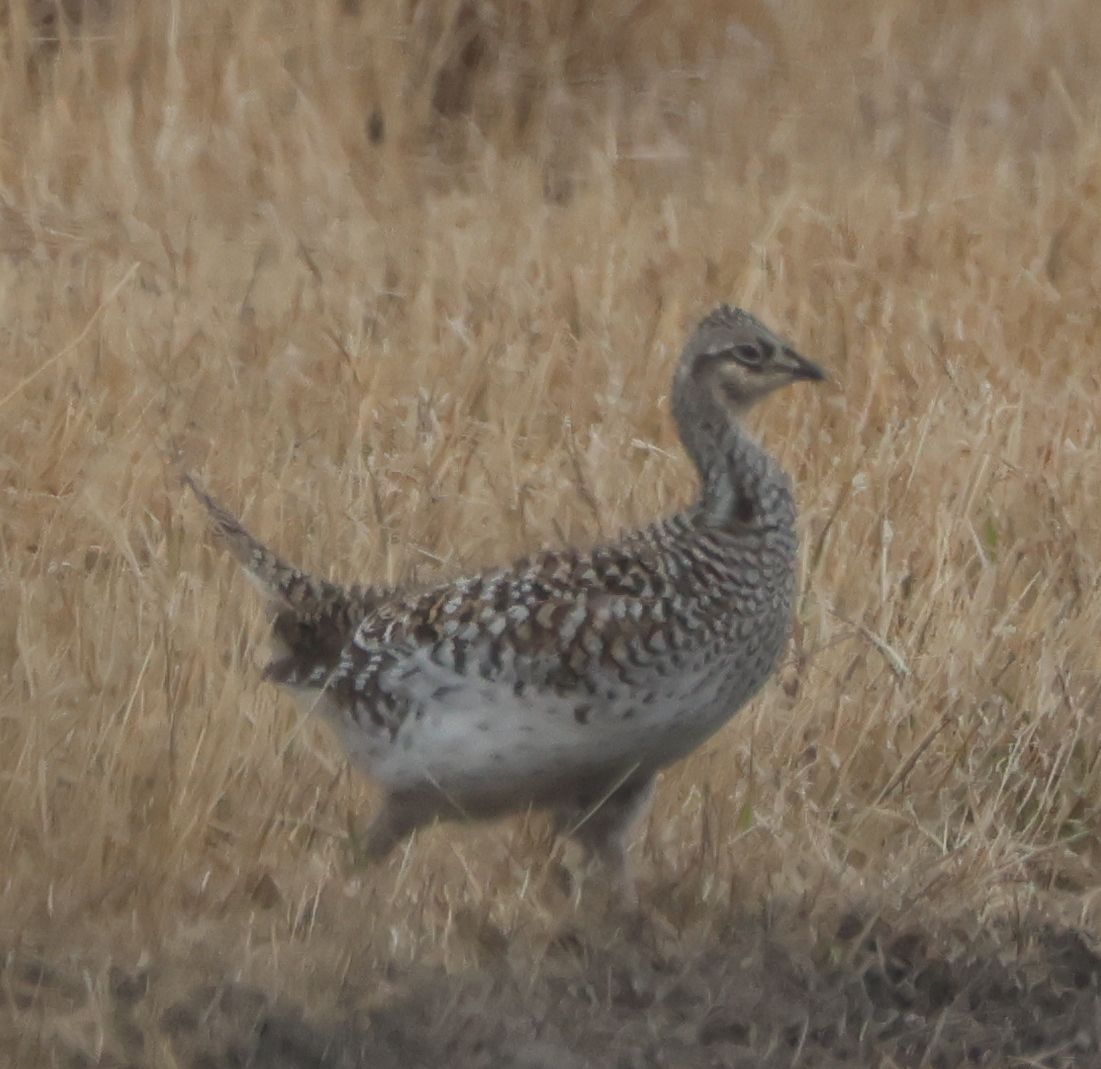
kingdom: Animalia
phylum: Chordata
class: Aves
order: Galliformes
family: Phasianidae
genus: Tympanuchus
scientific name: Tympanuchus phasianellus
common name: Sharp-tailed grouse
